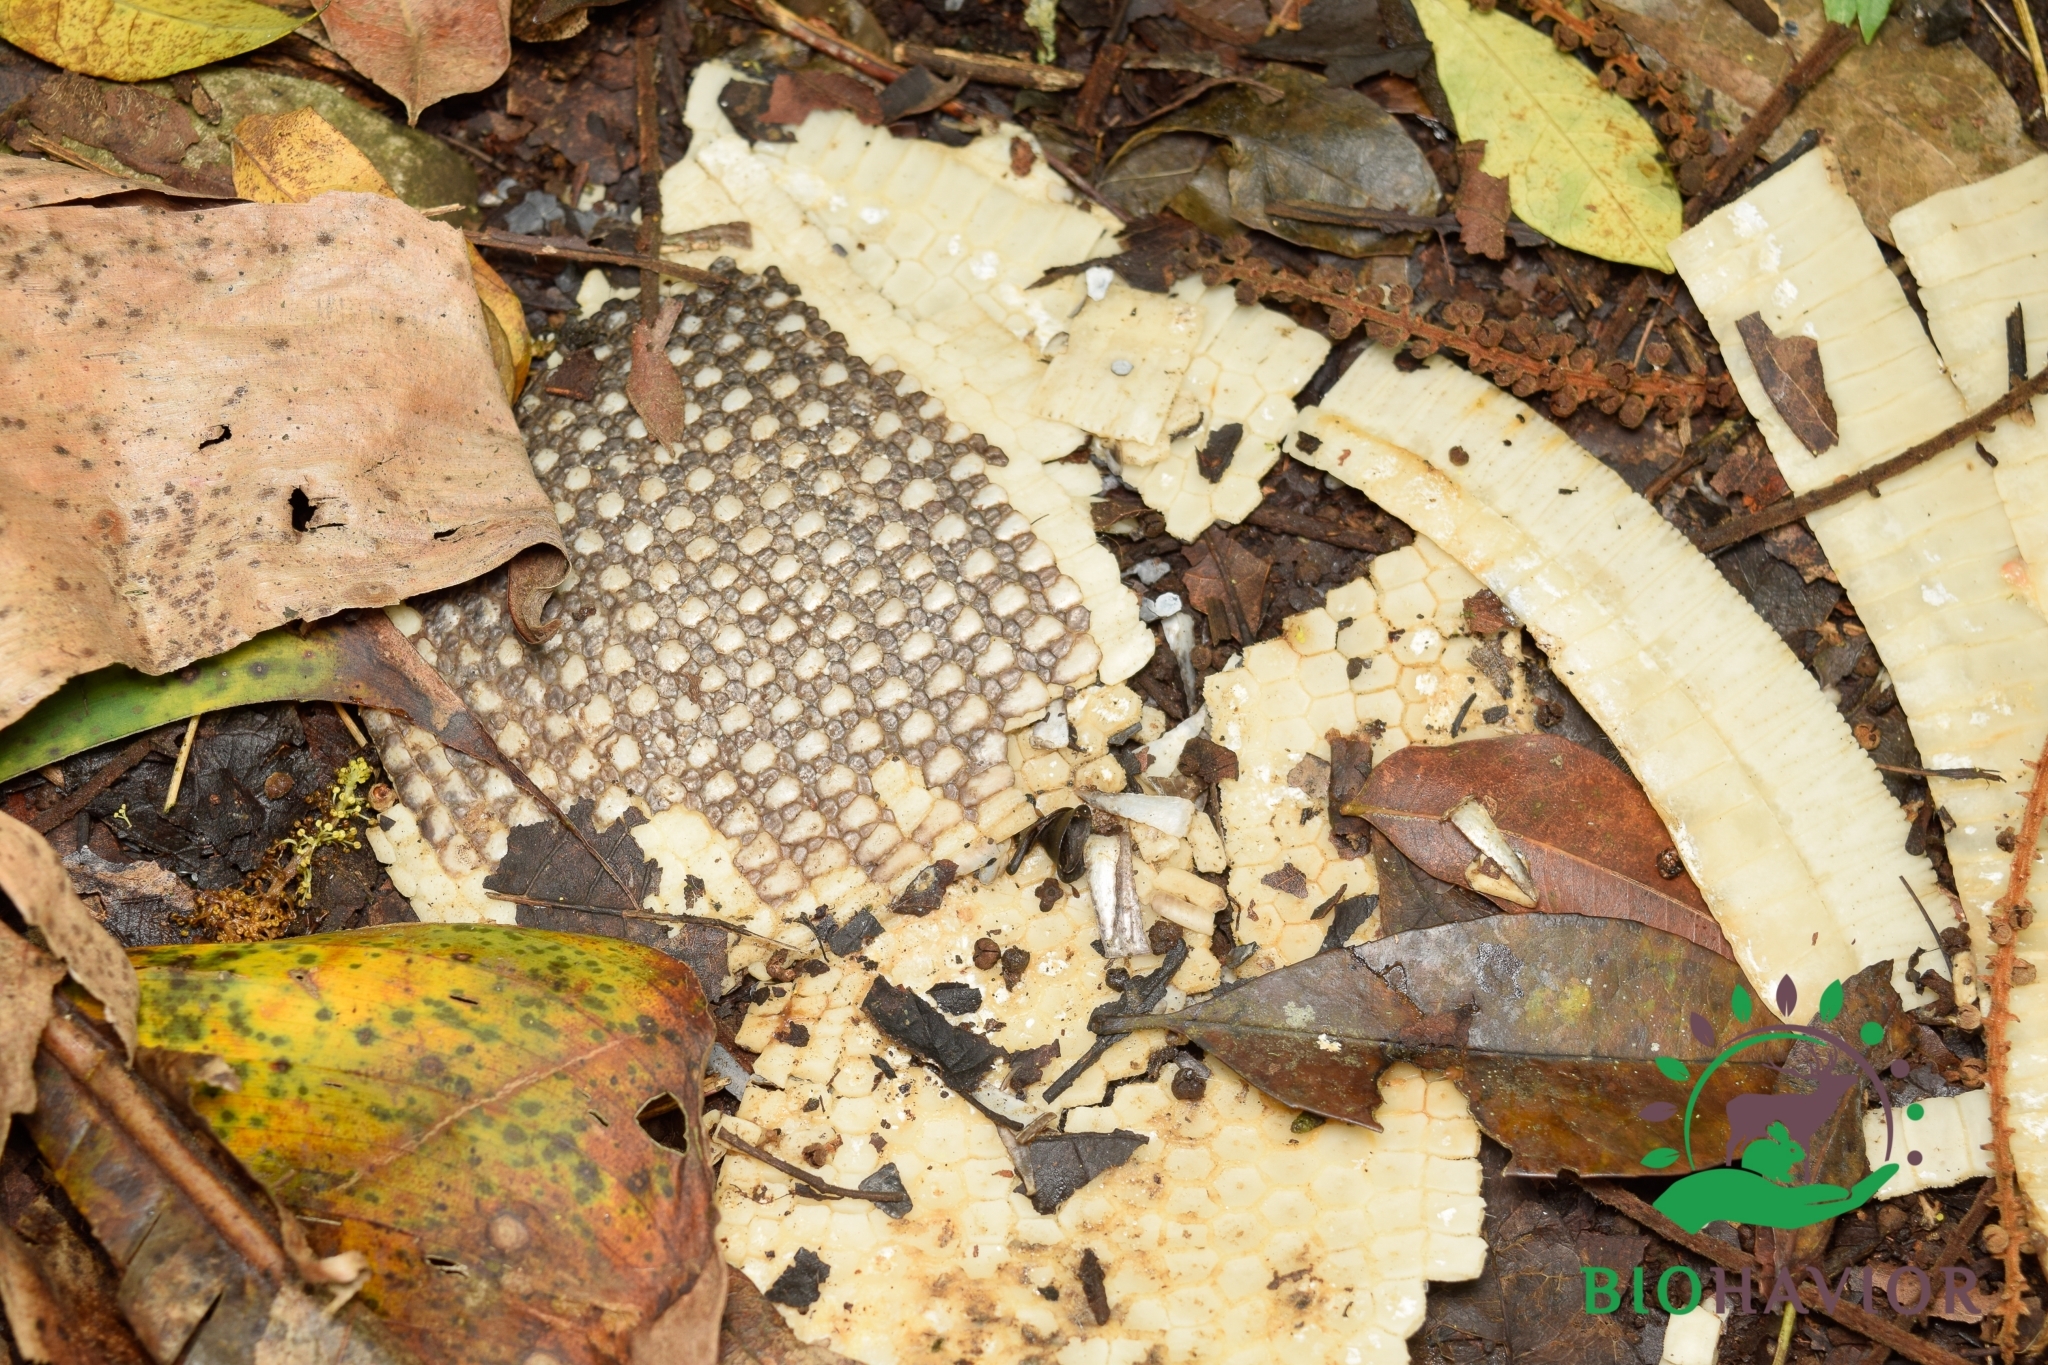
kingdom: Animalia
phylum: Chordata
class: Mammalia
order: Cingulata
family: Dasypodidae
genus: Dasypus
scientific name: Dasypus novemcinctus
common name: Nine-banded armadillo
